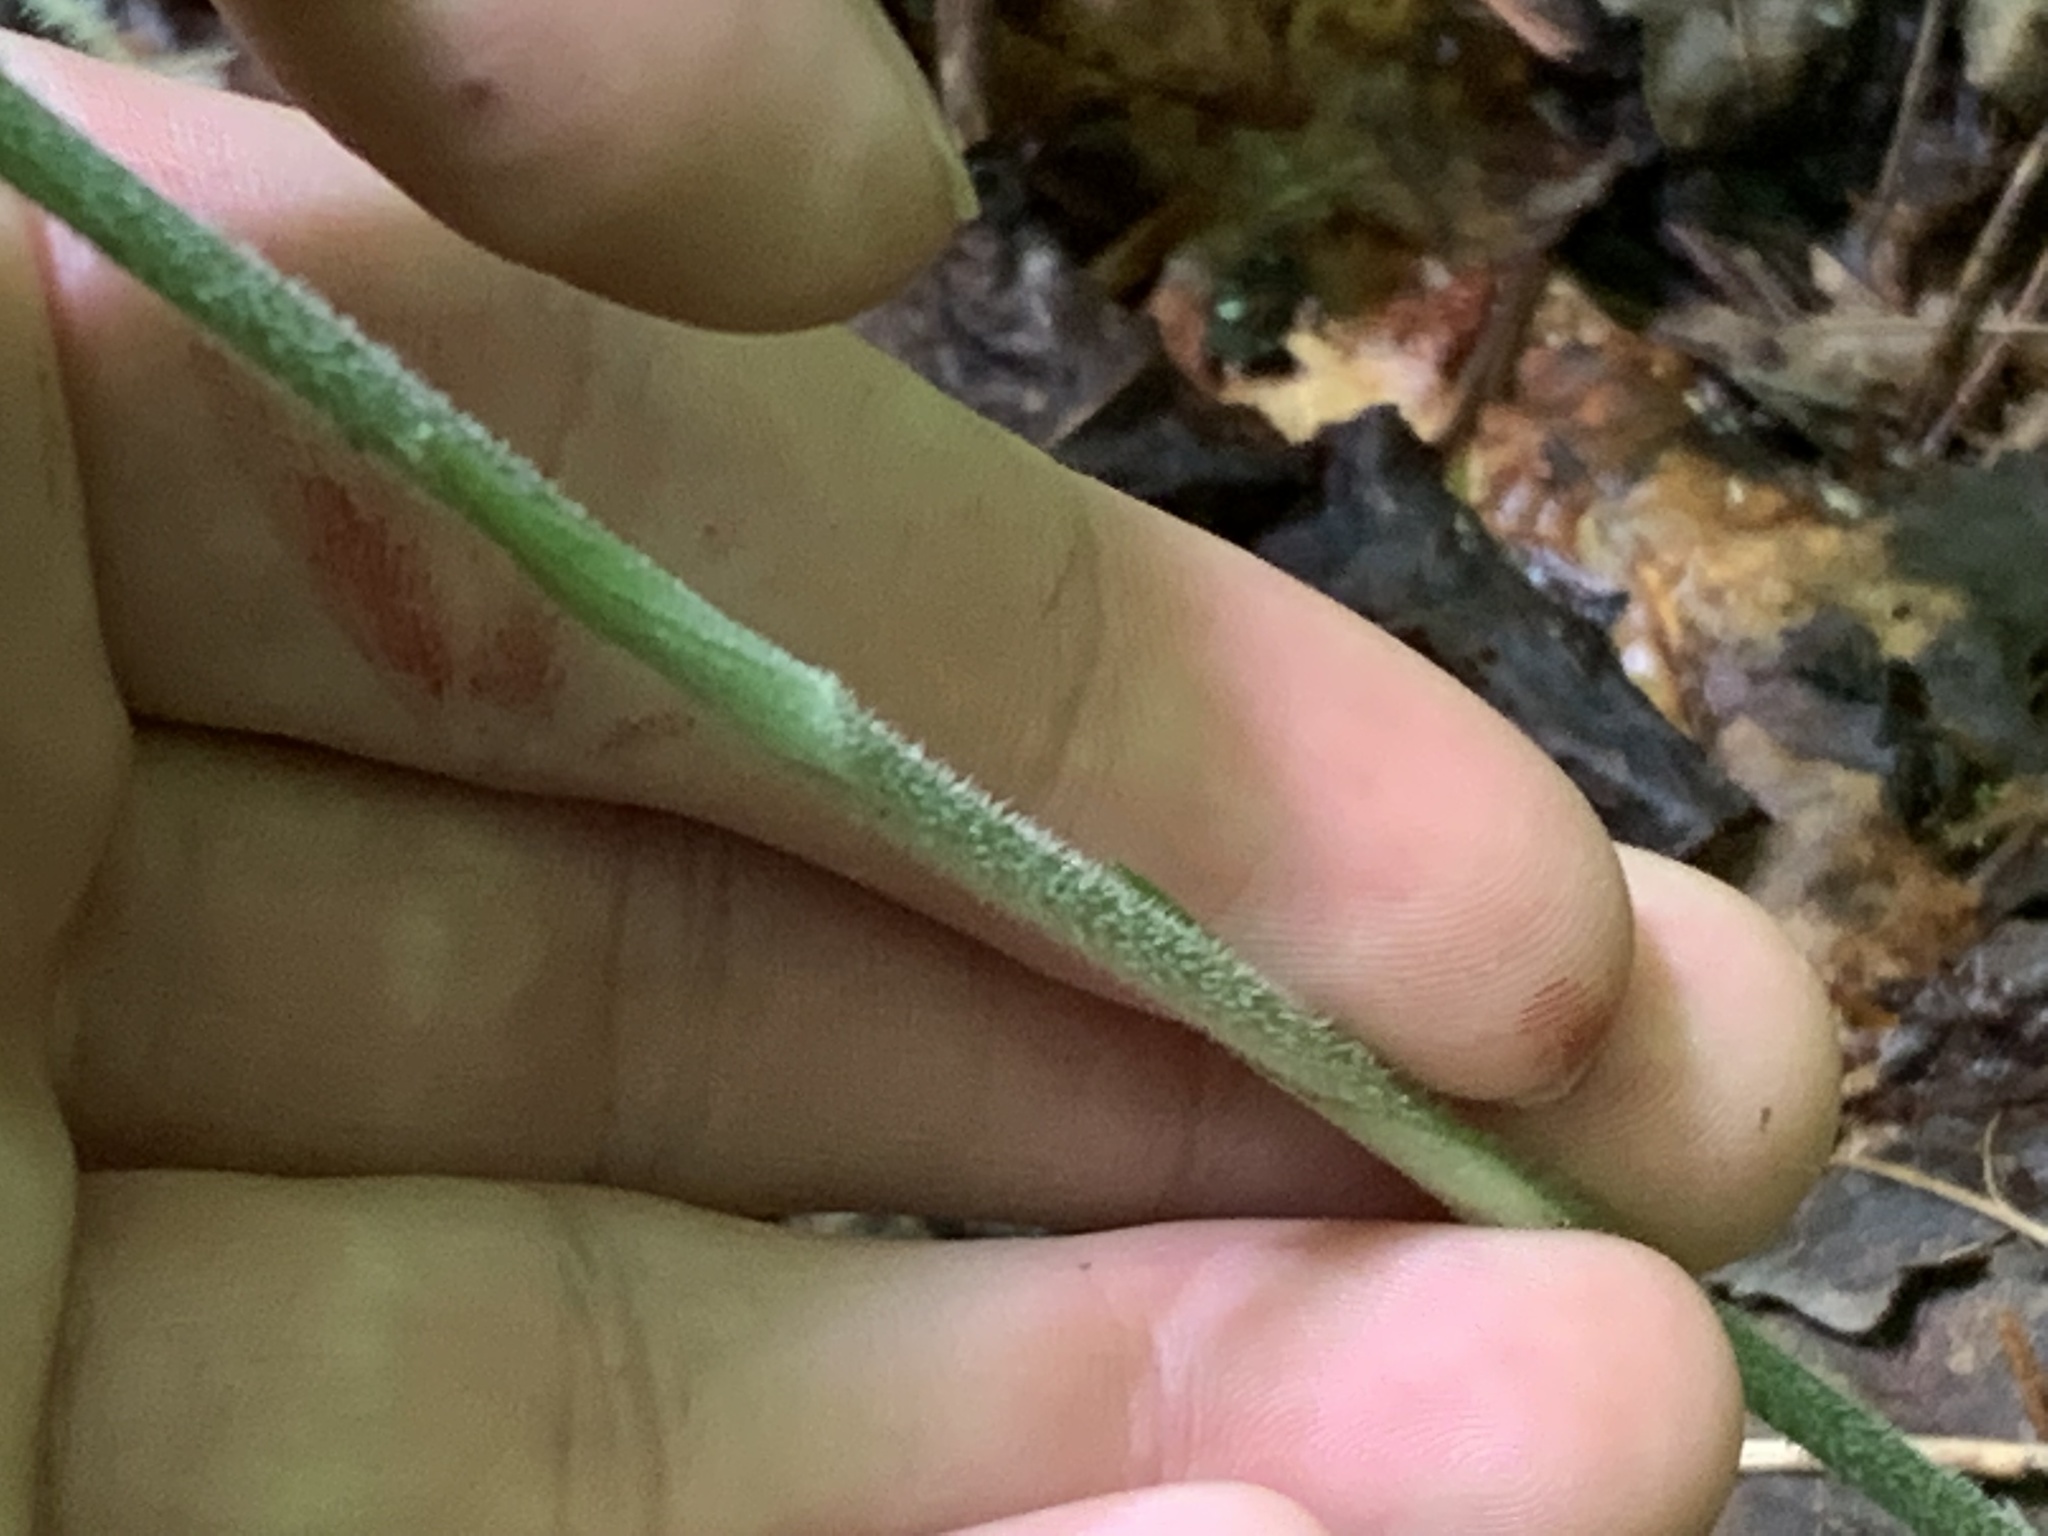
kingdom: Plantae
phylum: Tracheophyta
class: Liliopsida
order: Asparagales
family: Orchidaceae
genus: Goodyera
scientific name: Goodyera pubescens
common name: Downy rattlesnake-plantain
